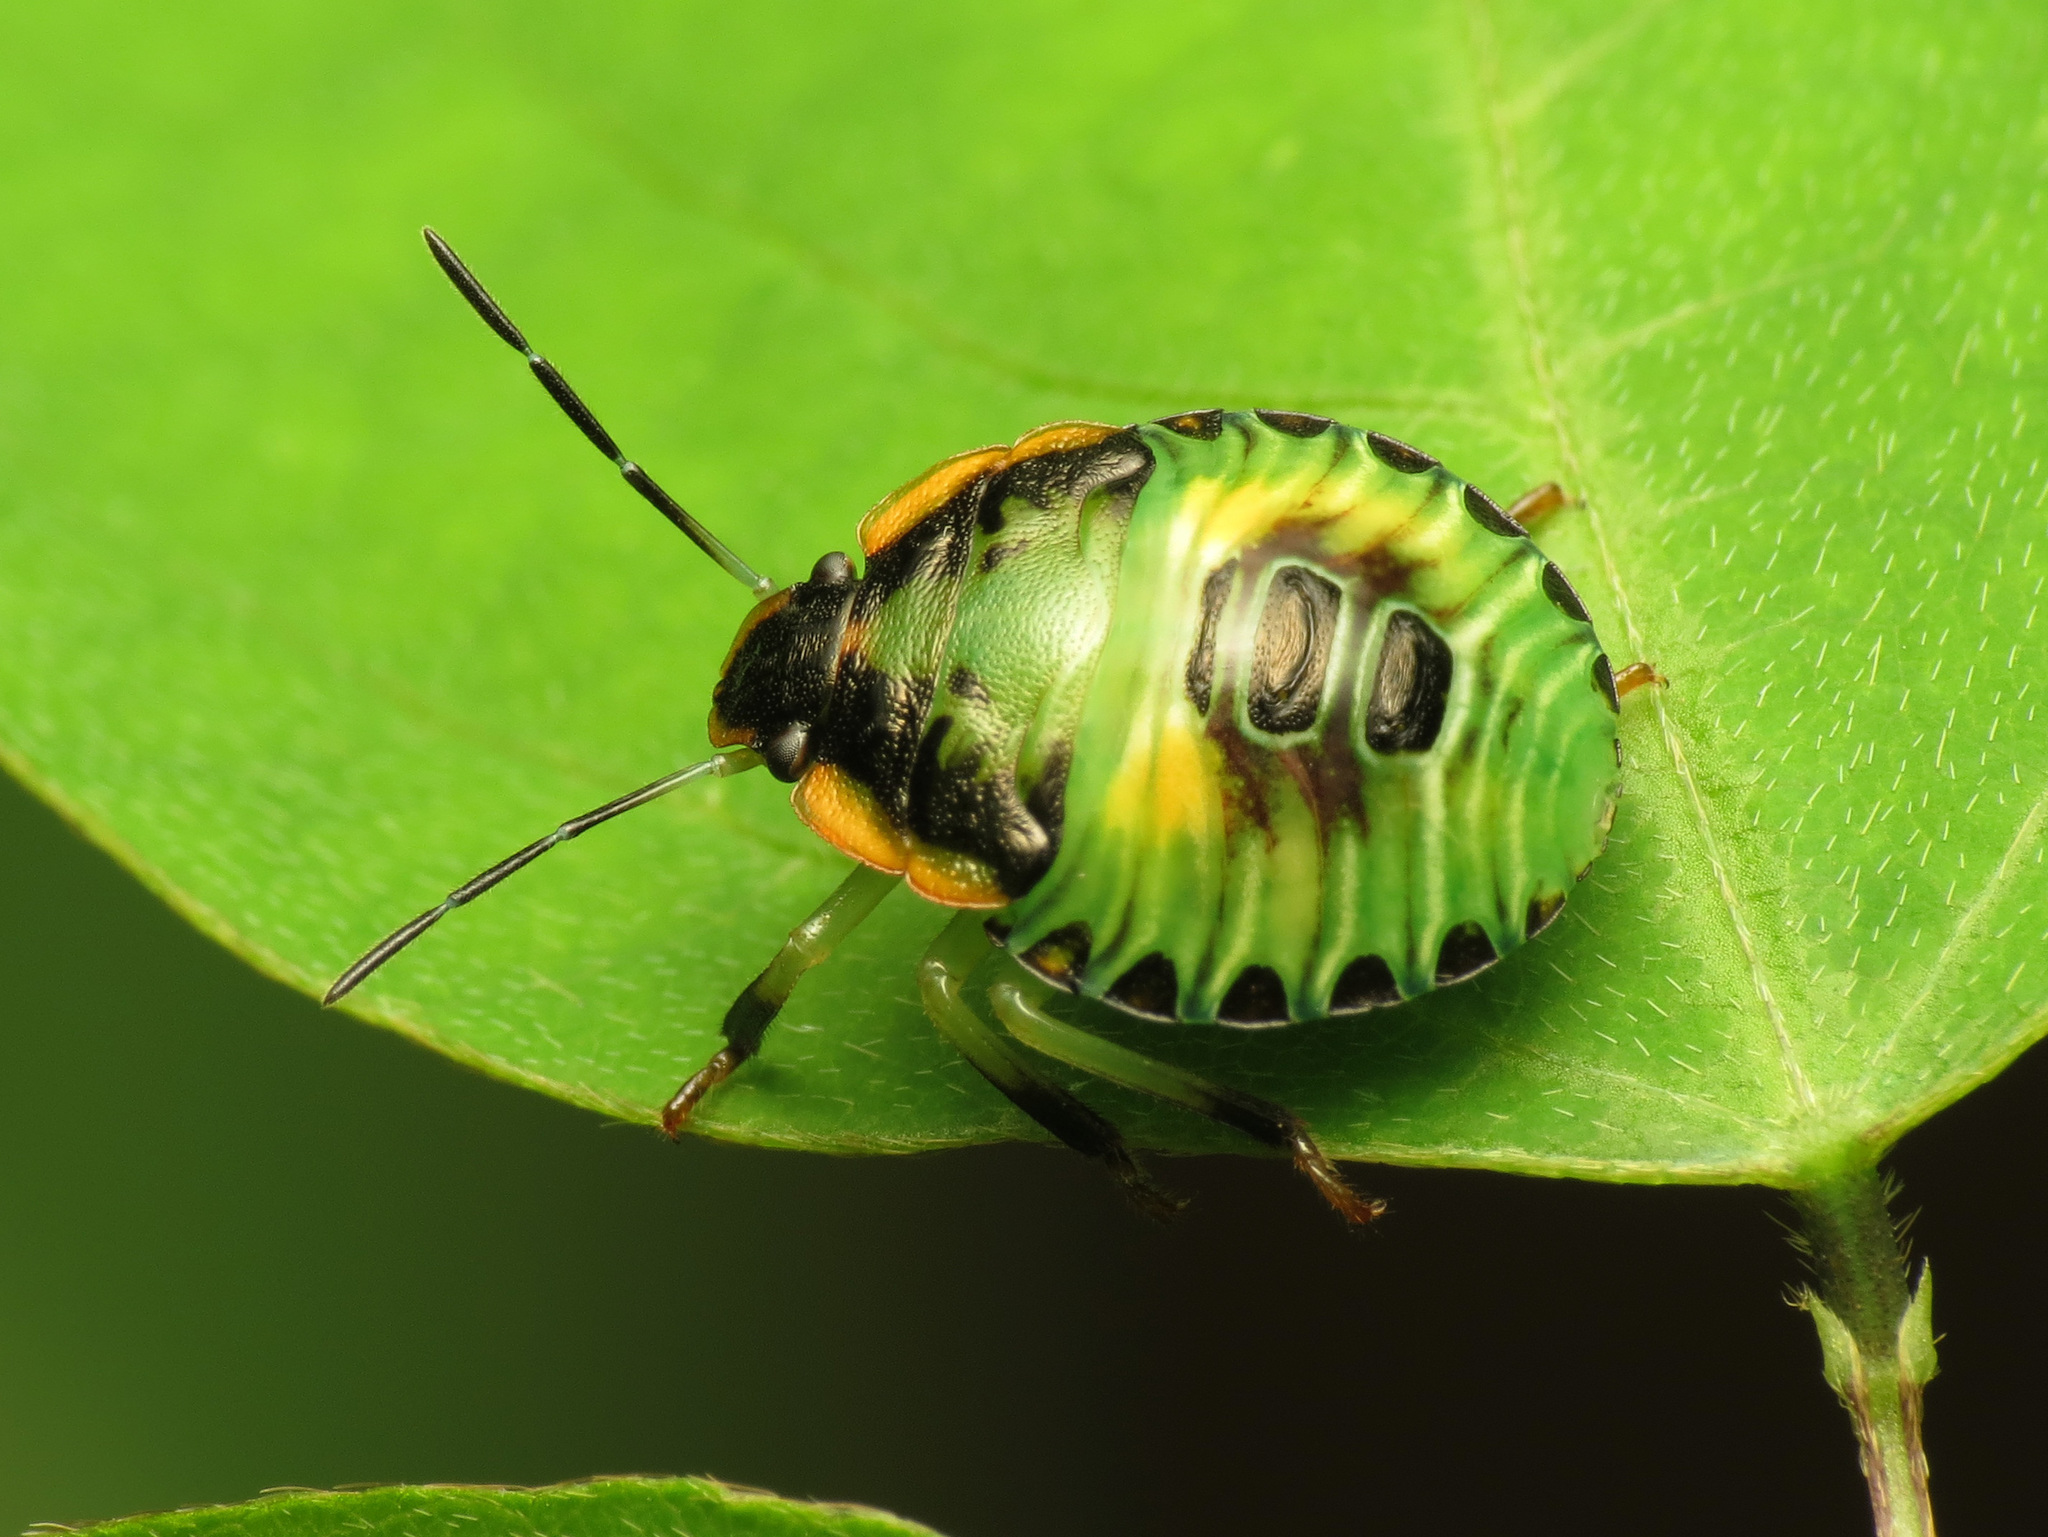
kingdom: Animalia
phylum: Arthropoda
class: Insecta
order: Hemiptera
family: Pentatomidae
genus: Chinavia
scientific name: Chinavia hilaris
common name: Green stink bug
